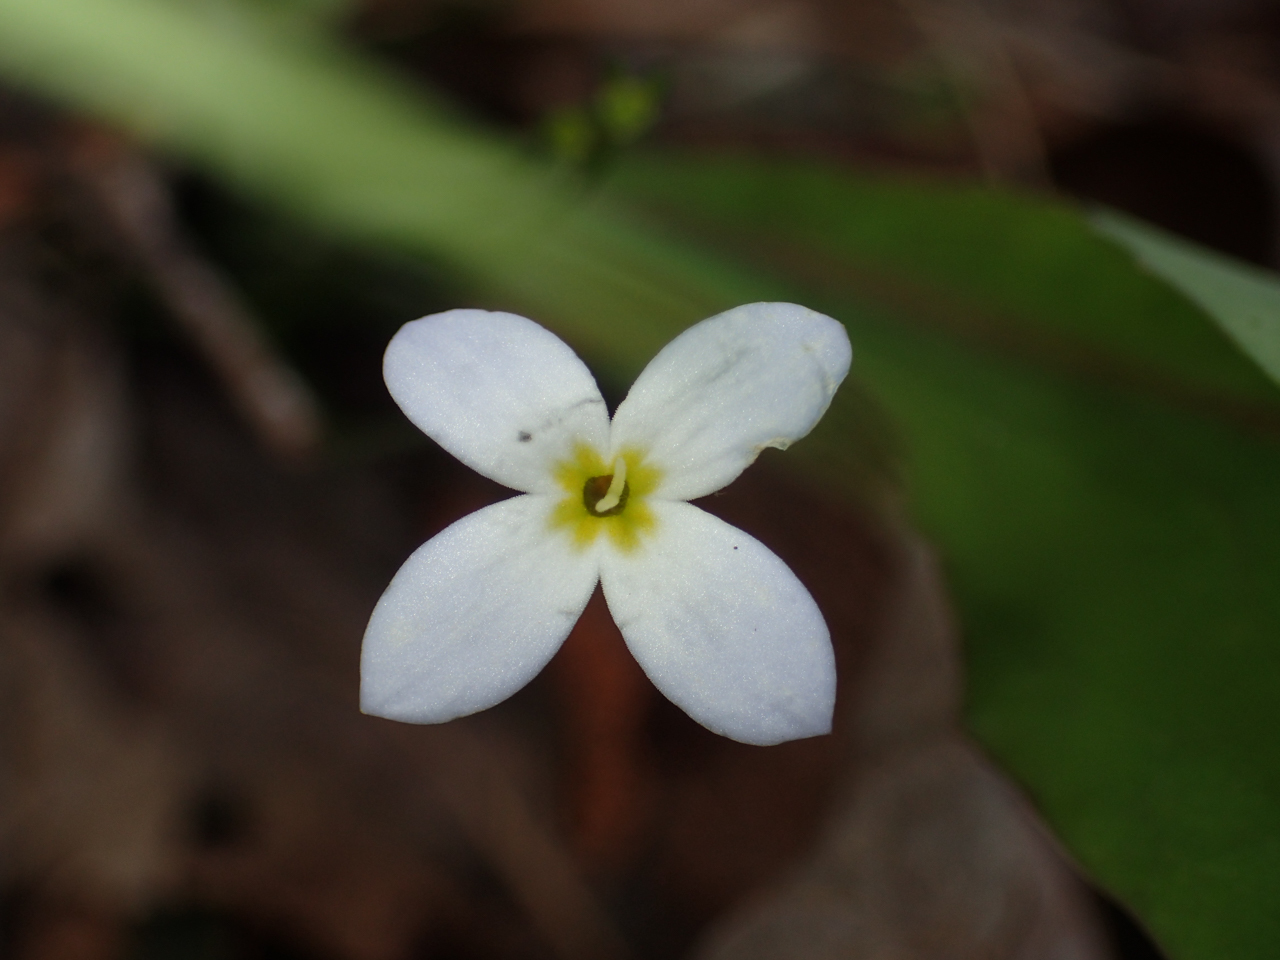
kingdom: Plantae
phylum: Tracheophyta
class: Magnoliopsida
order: Gentianales
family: Rubiaceae
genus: Houstonia
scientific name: Houstonia caerulea
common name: Bluets
